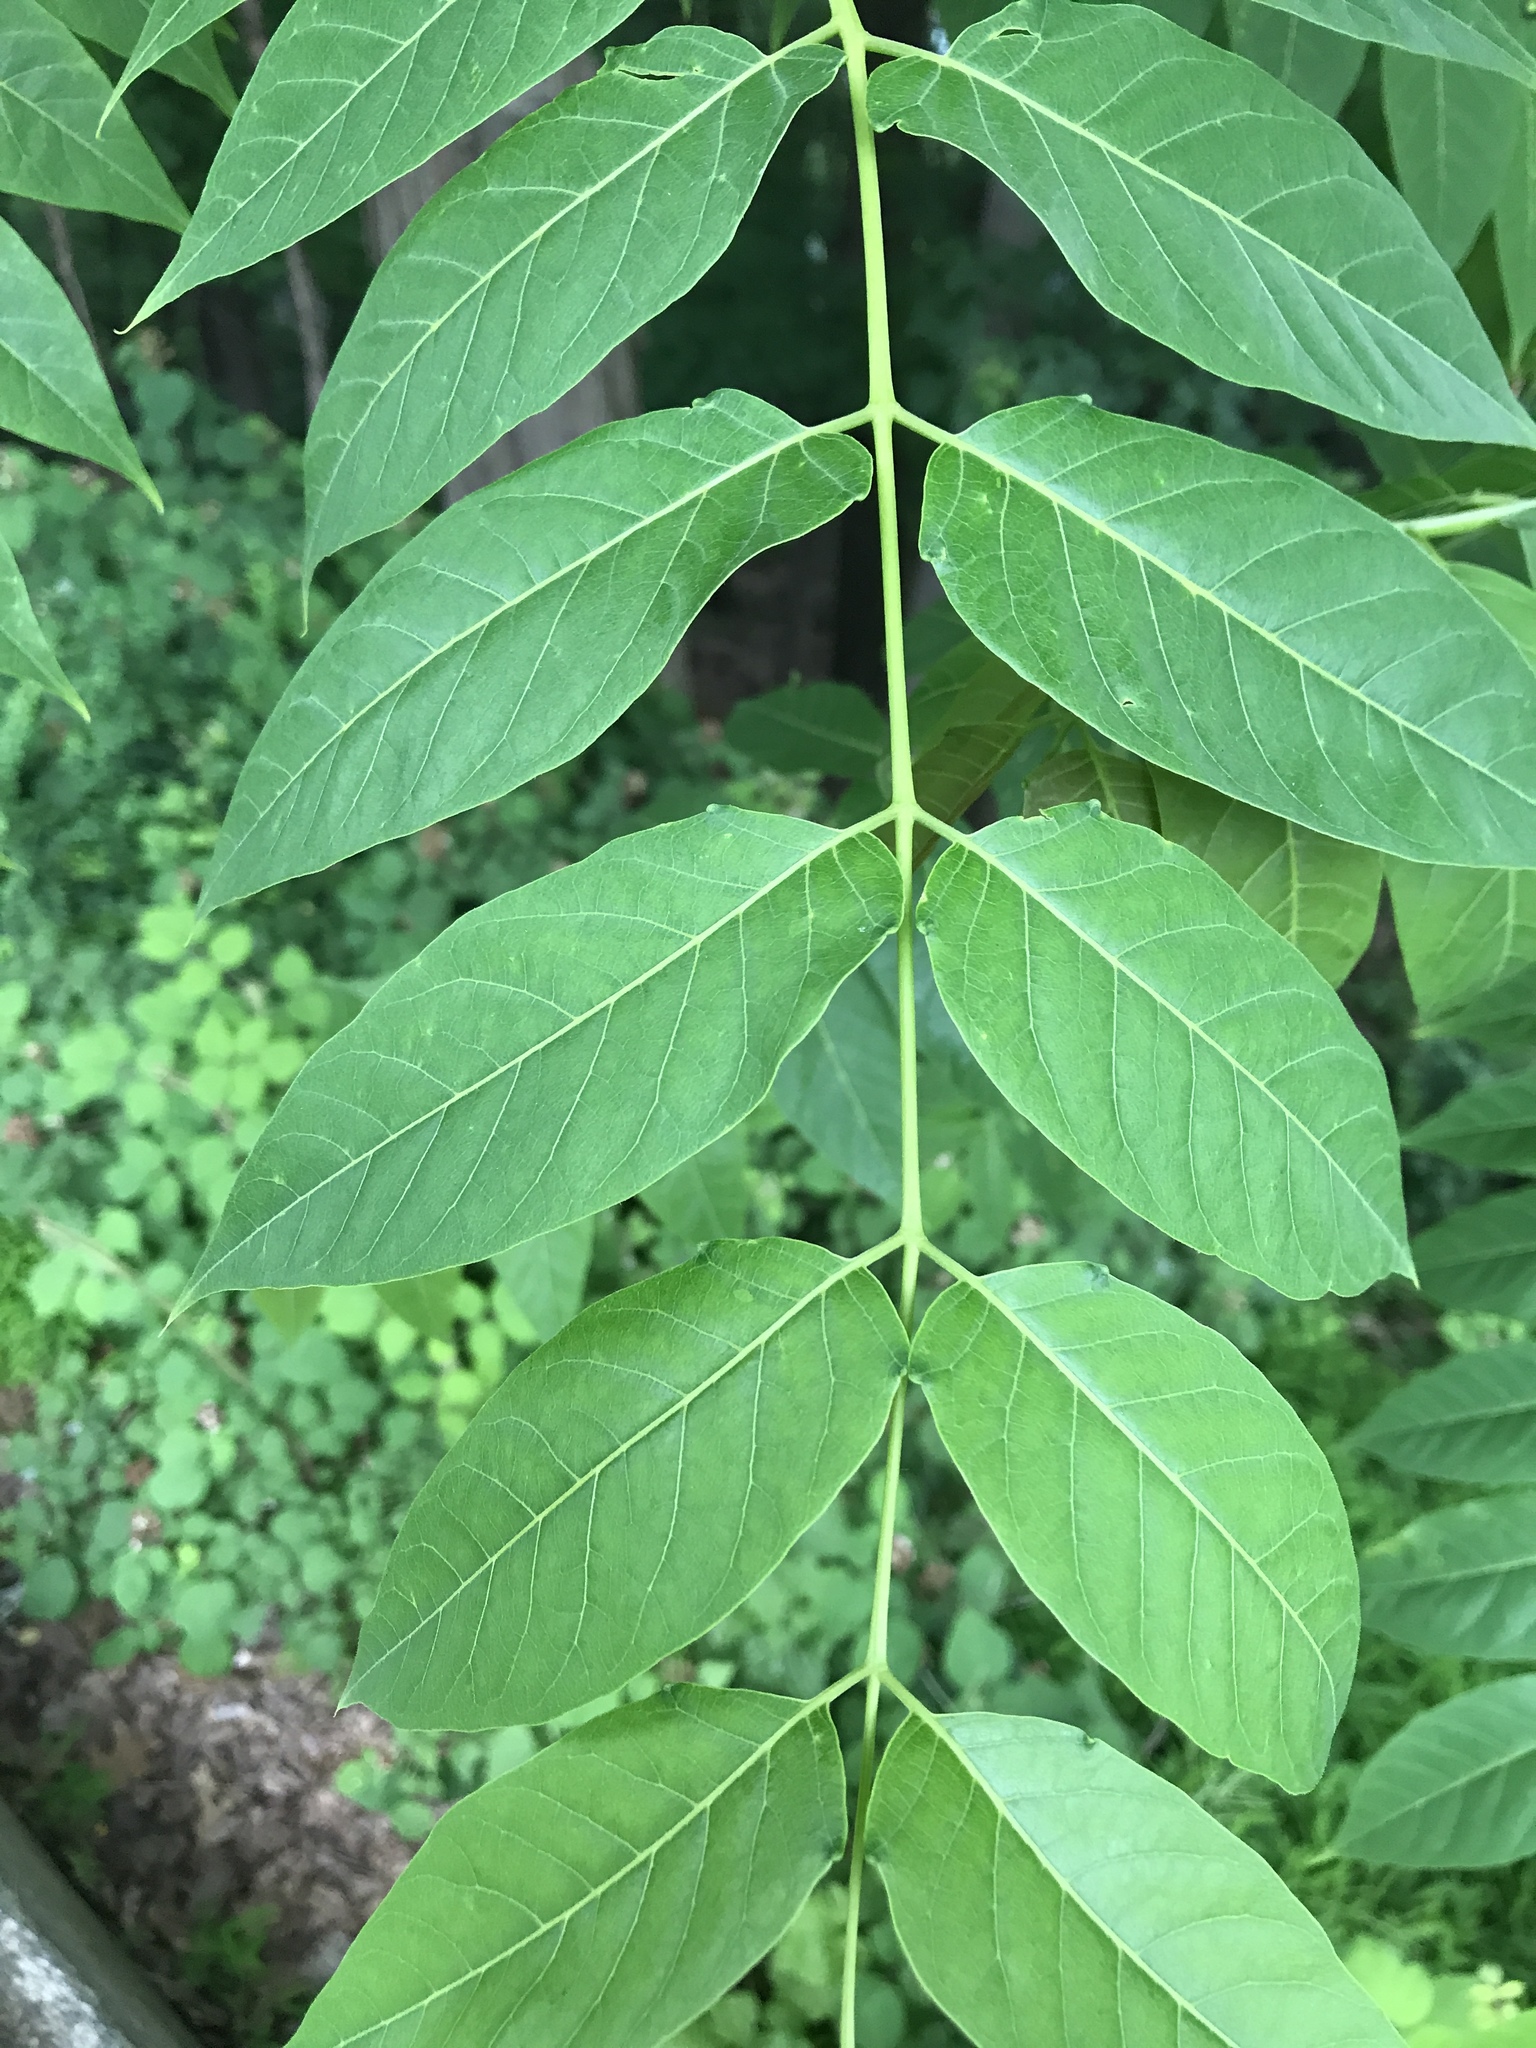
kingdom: Plantae
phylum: Tracheophyta
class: Magnoliopsida
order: Sapindales
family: Simaroubaceae
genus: Ailanthus
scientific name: Ailanthus altissima
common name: Tree-of-heaven
